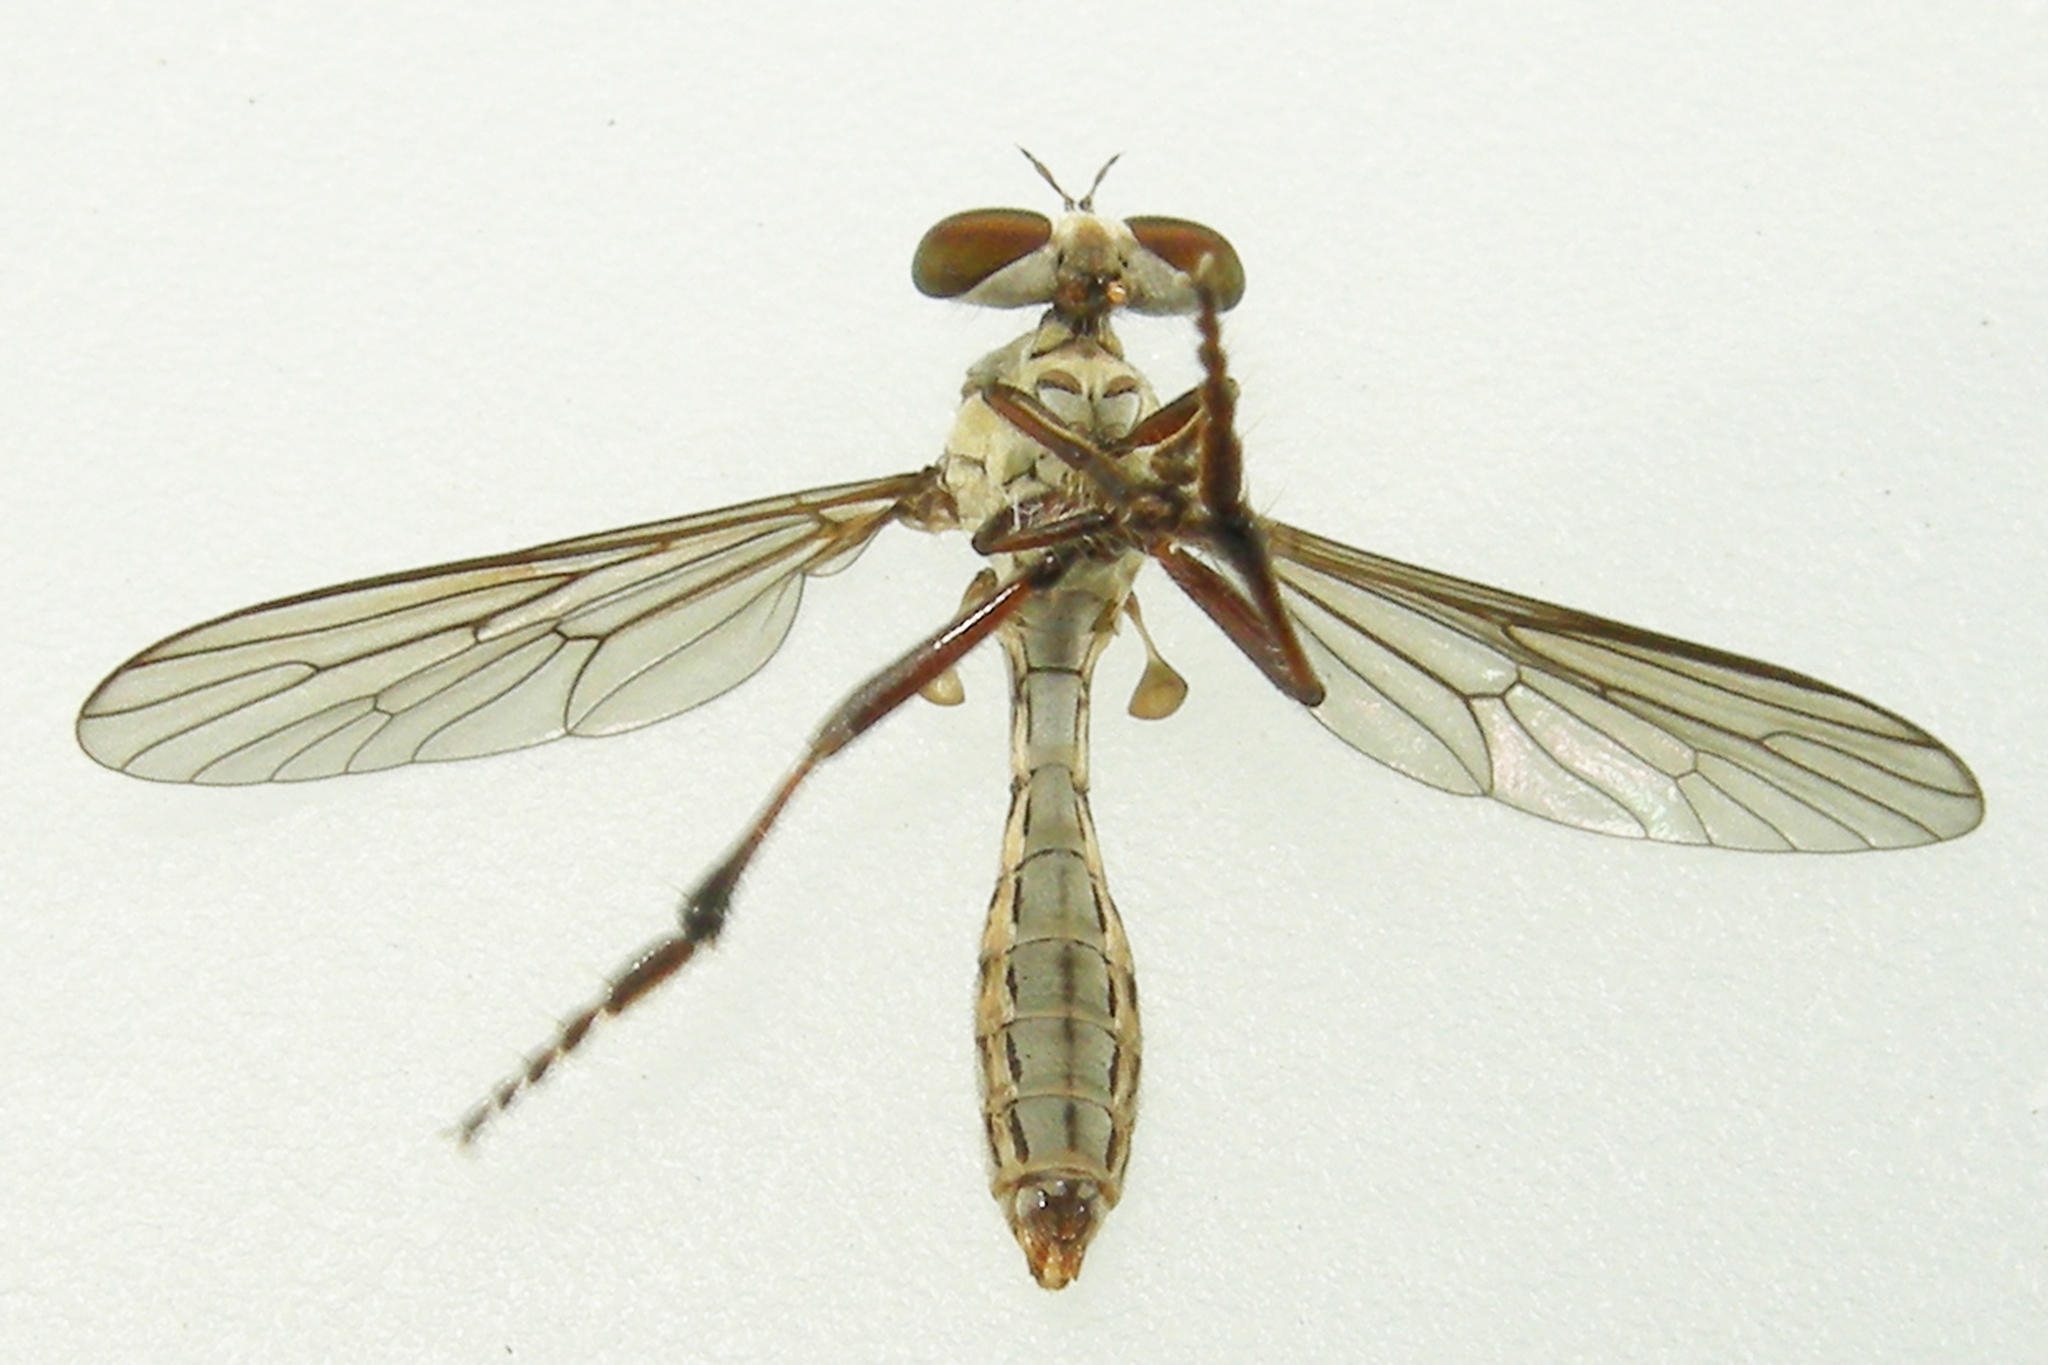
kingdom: Animalia
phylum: Arthropoda
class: Insecta
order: Diptera
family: Asilidae
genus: Holcocephala
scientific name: Holcocephala calva
